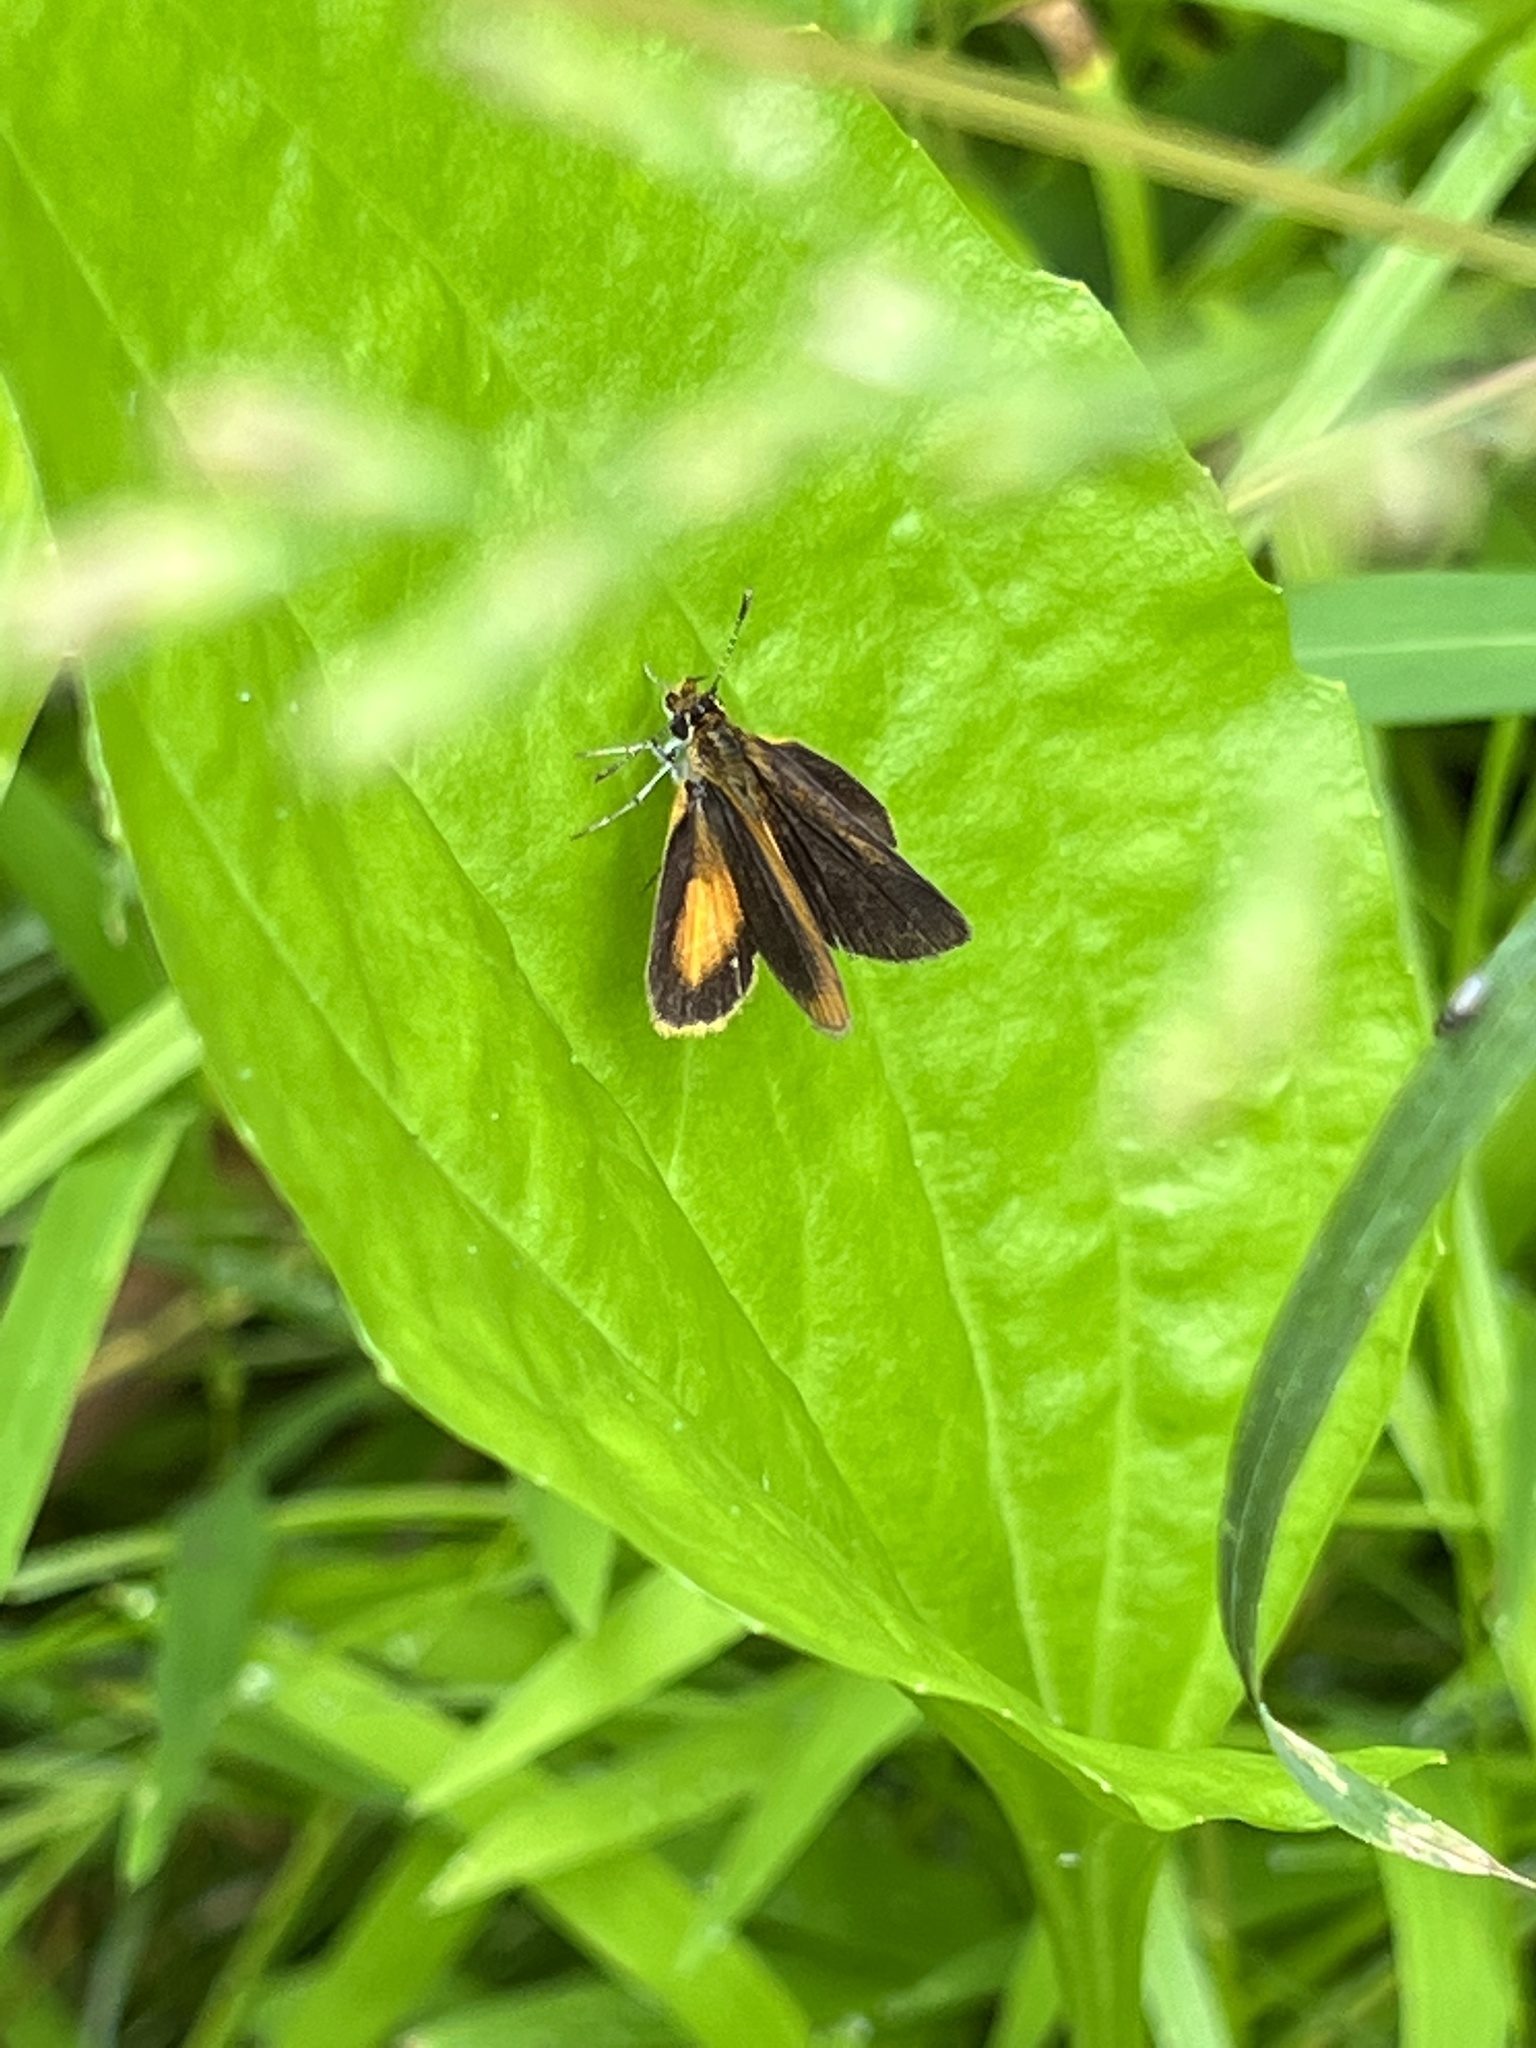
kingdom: Animalia
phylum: Arthropoda
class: Insecta
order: Lepidoptera
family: Hesperiidae
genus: Ancyloxypha
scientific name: Ancyloxypha numitor
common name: Least skipper
